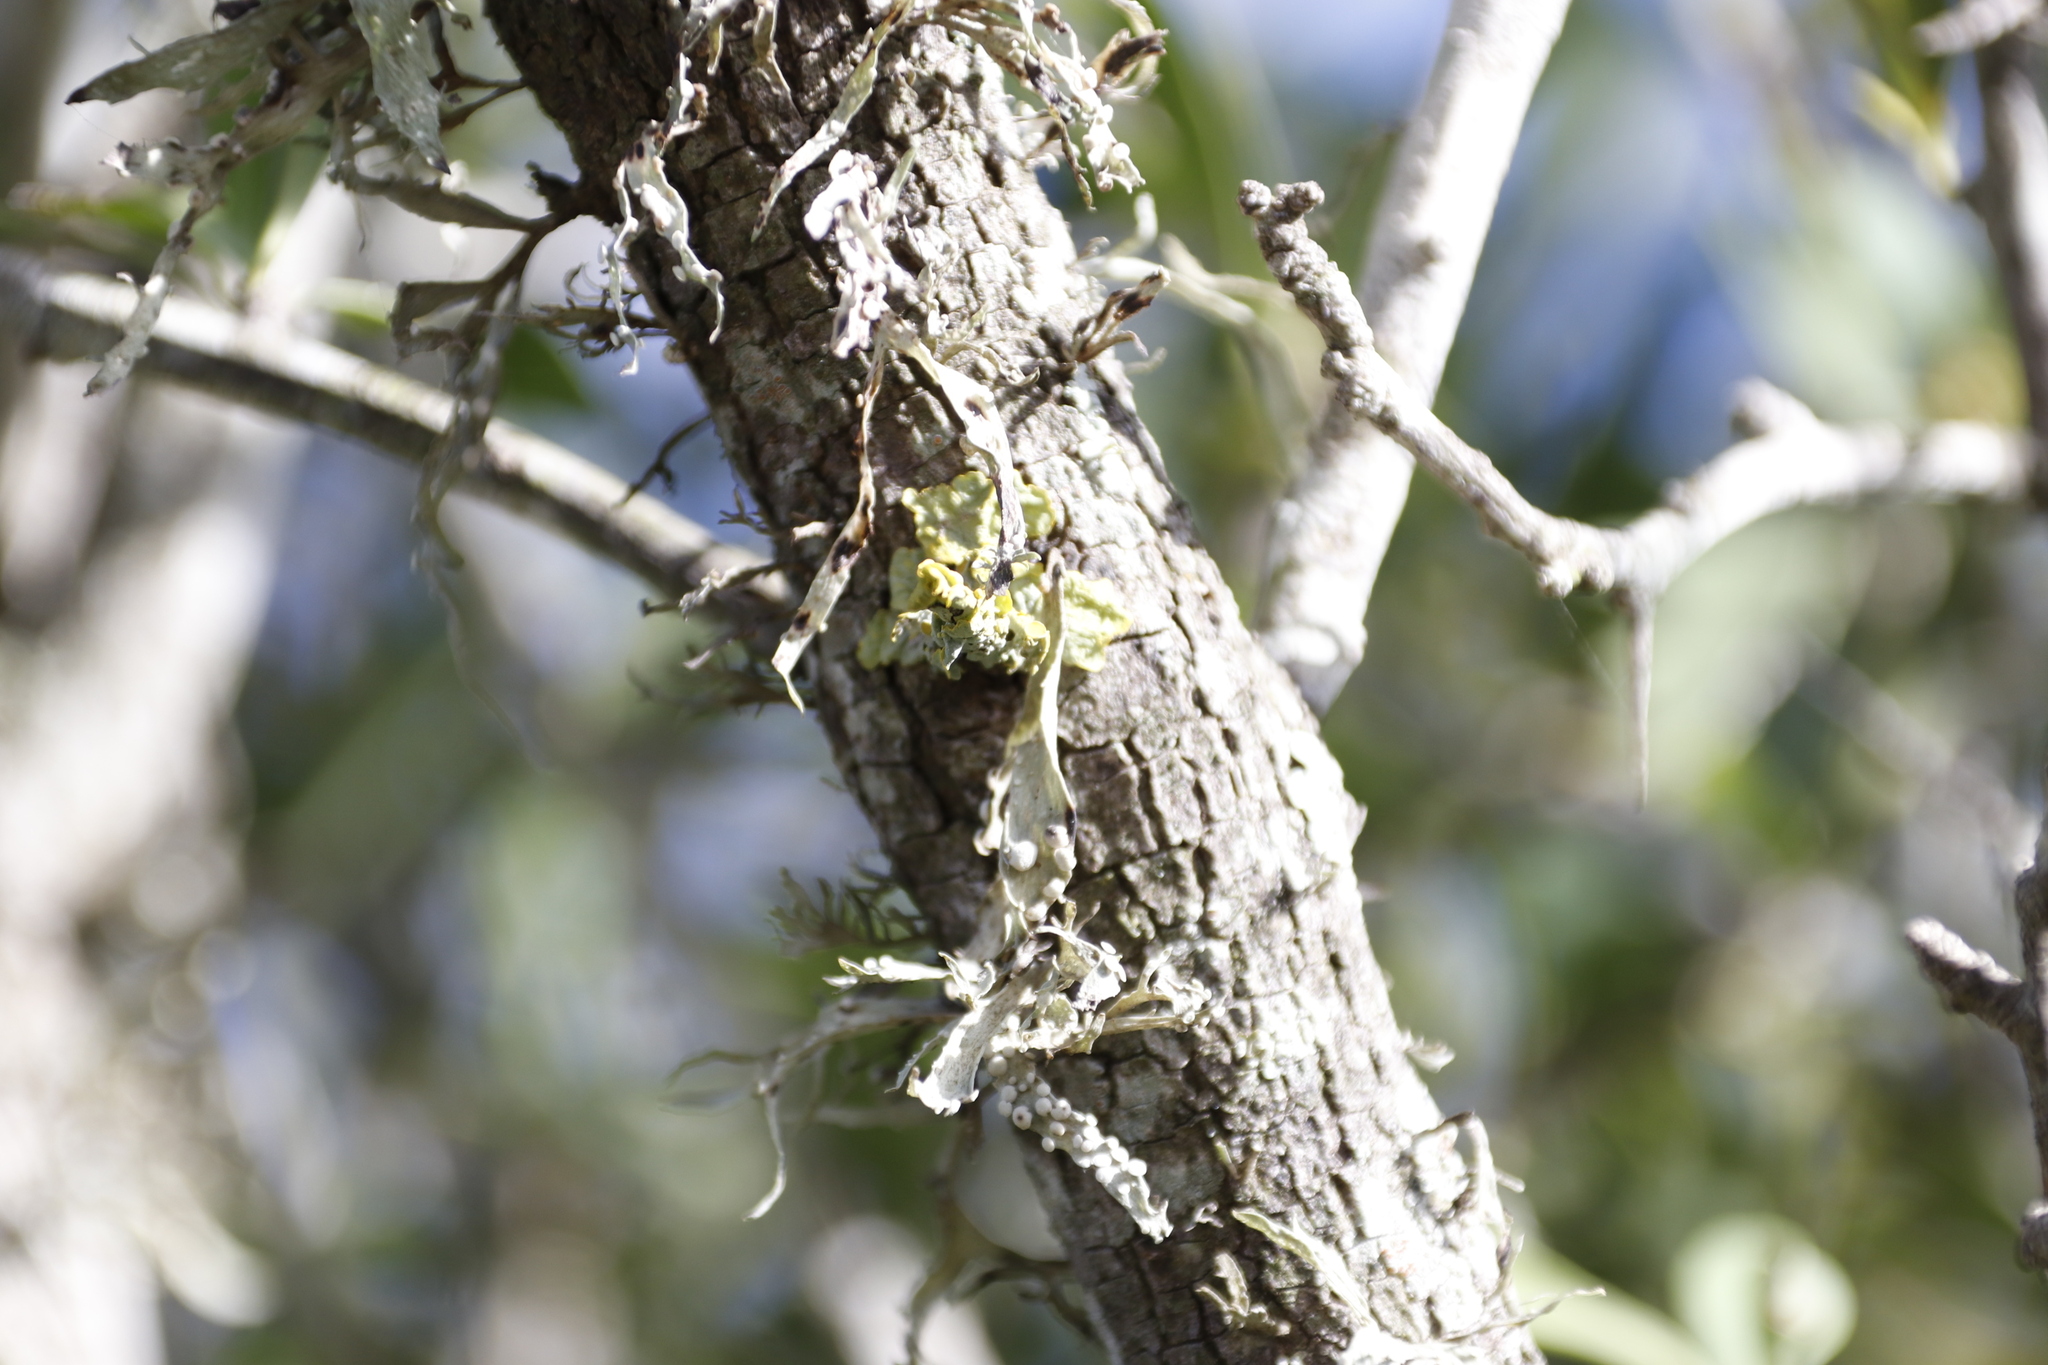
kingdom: Fungi
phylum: Ascomycota
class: Lecanoromycetes
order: Teloschistales
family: Teloschistaceae
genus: Xanthoria
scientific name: Xanthoria parietina
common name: Common orange lichen
